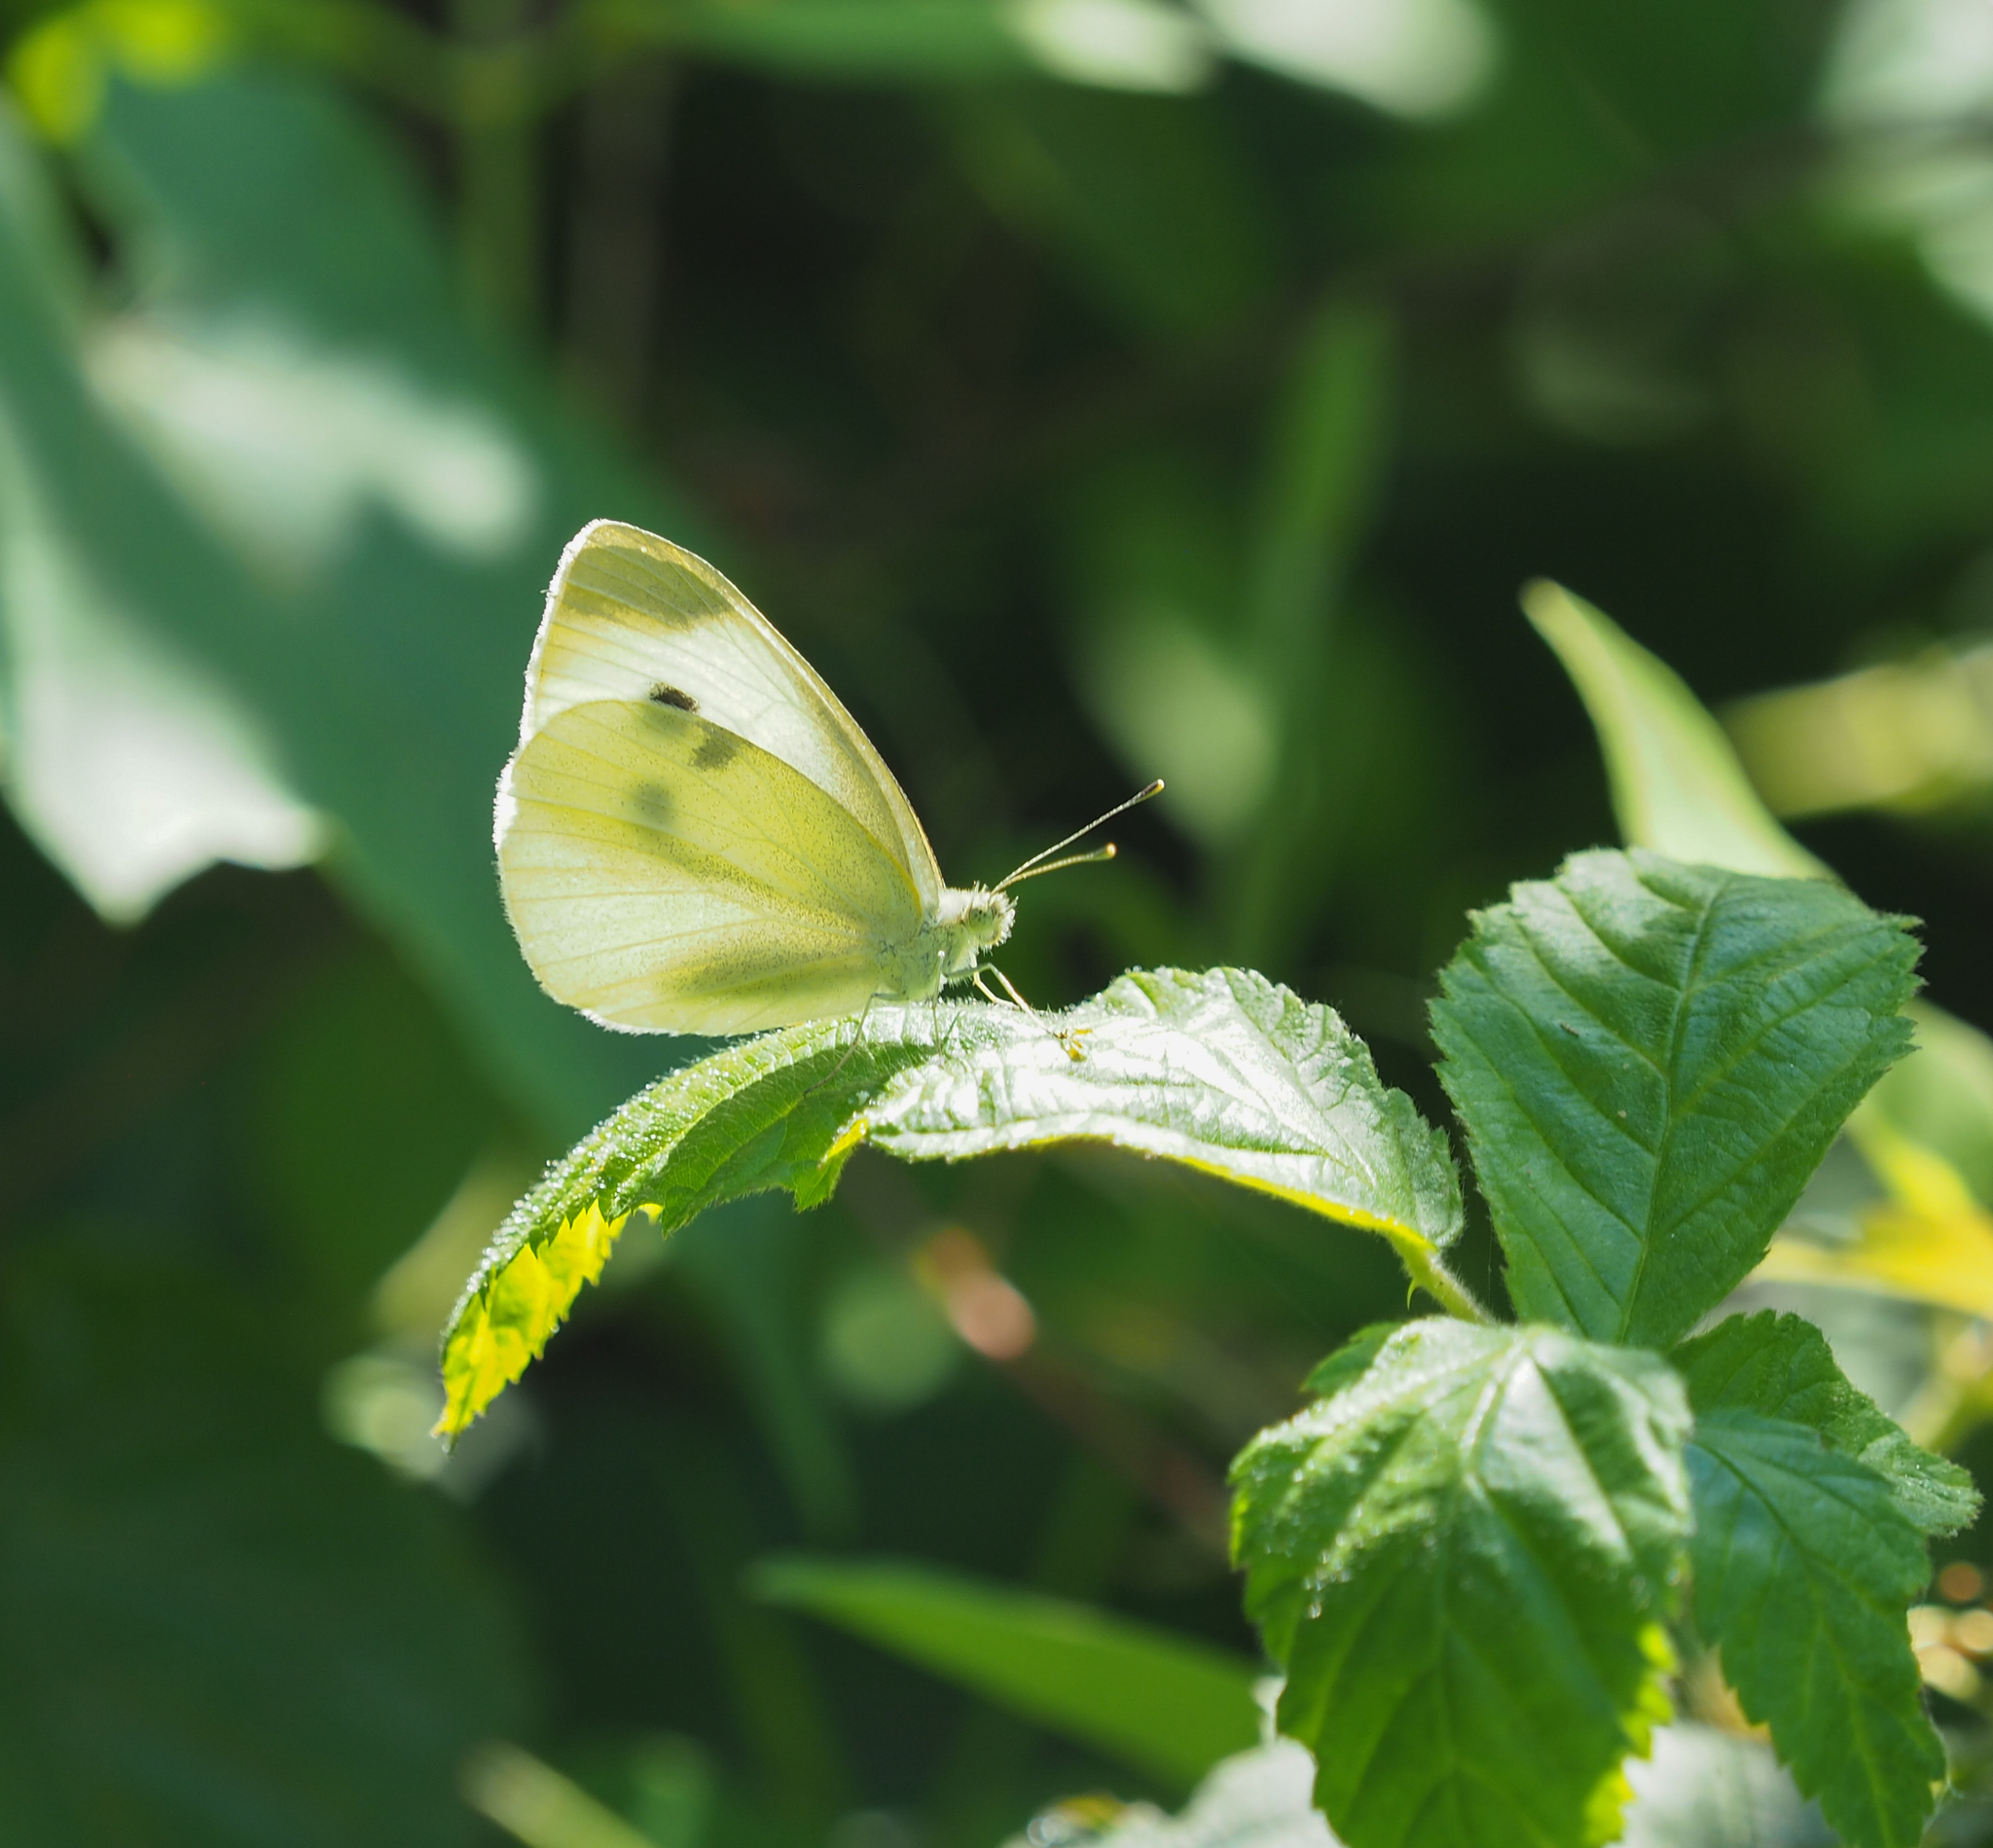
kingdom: Animalia
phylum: Arthropoda
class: Insecta
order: Lepidoptera
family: Pieridae
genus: Pieris
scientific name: Pieris rapae
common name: Small white
